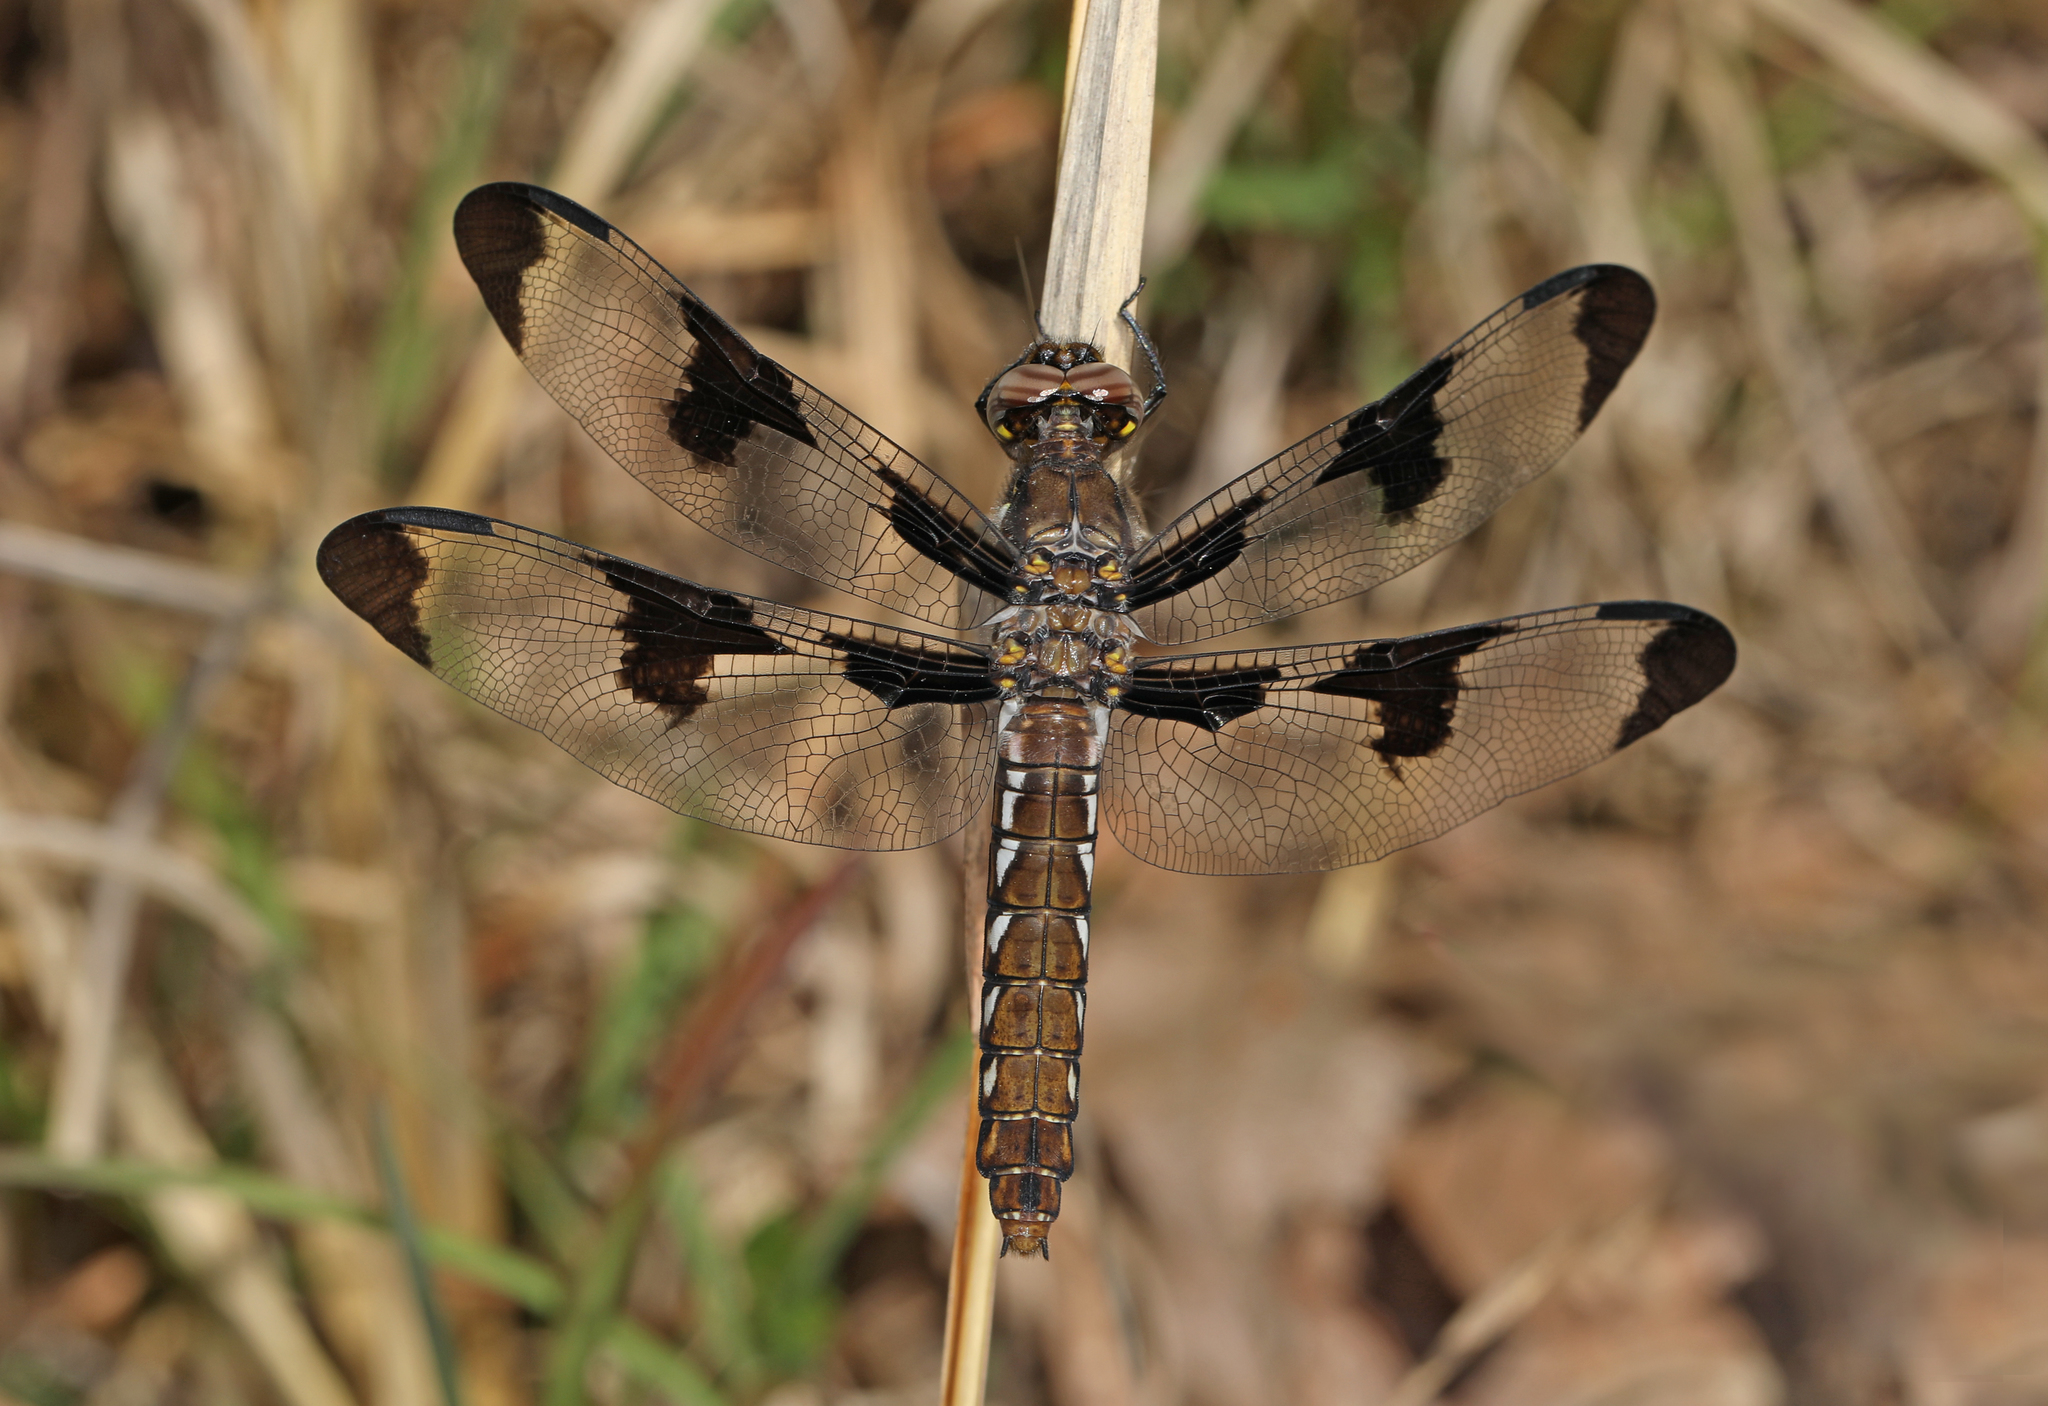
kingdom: Animalia
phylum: Arthropoda
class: Insecta
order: Odonata
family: Libellulidae
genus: Plathemis
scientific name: Plathemis lydia
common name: Common whitetail
